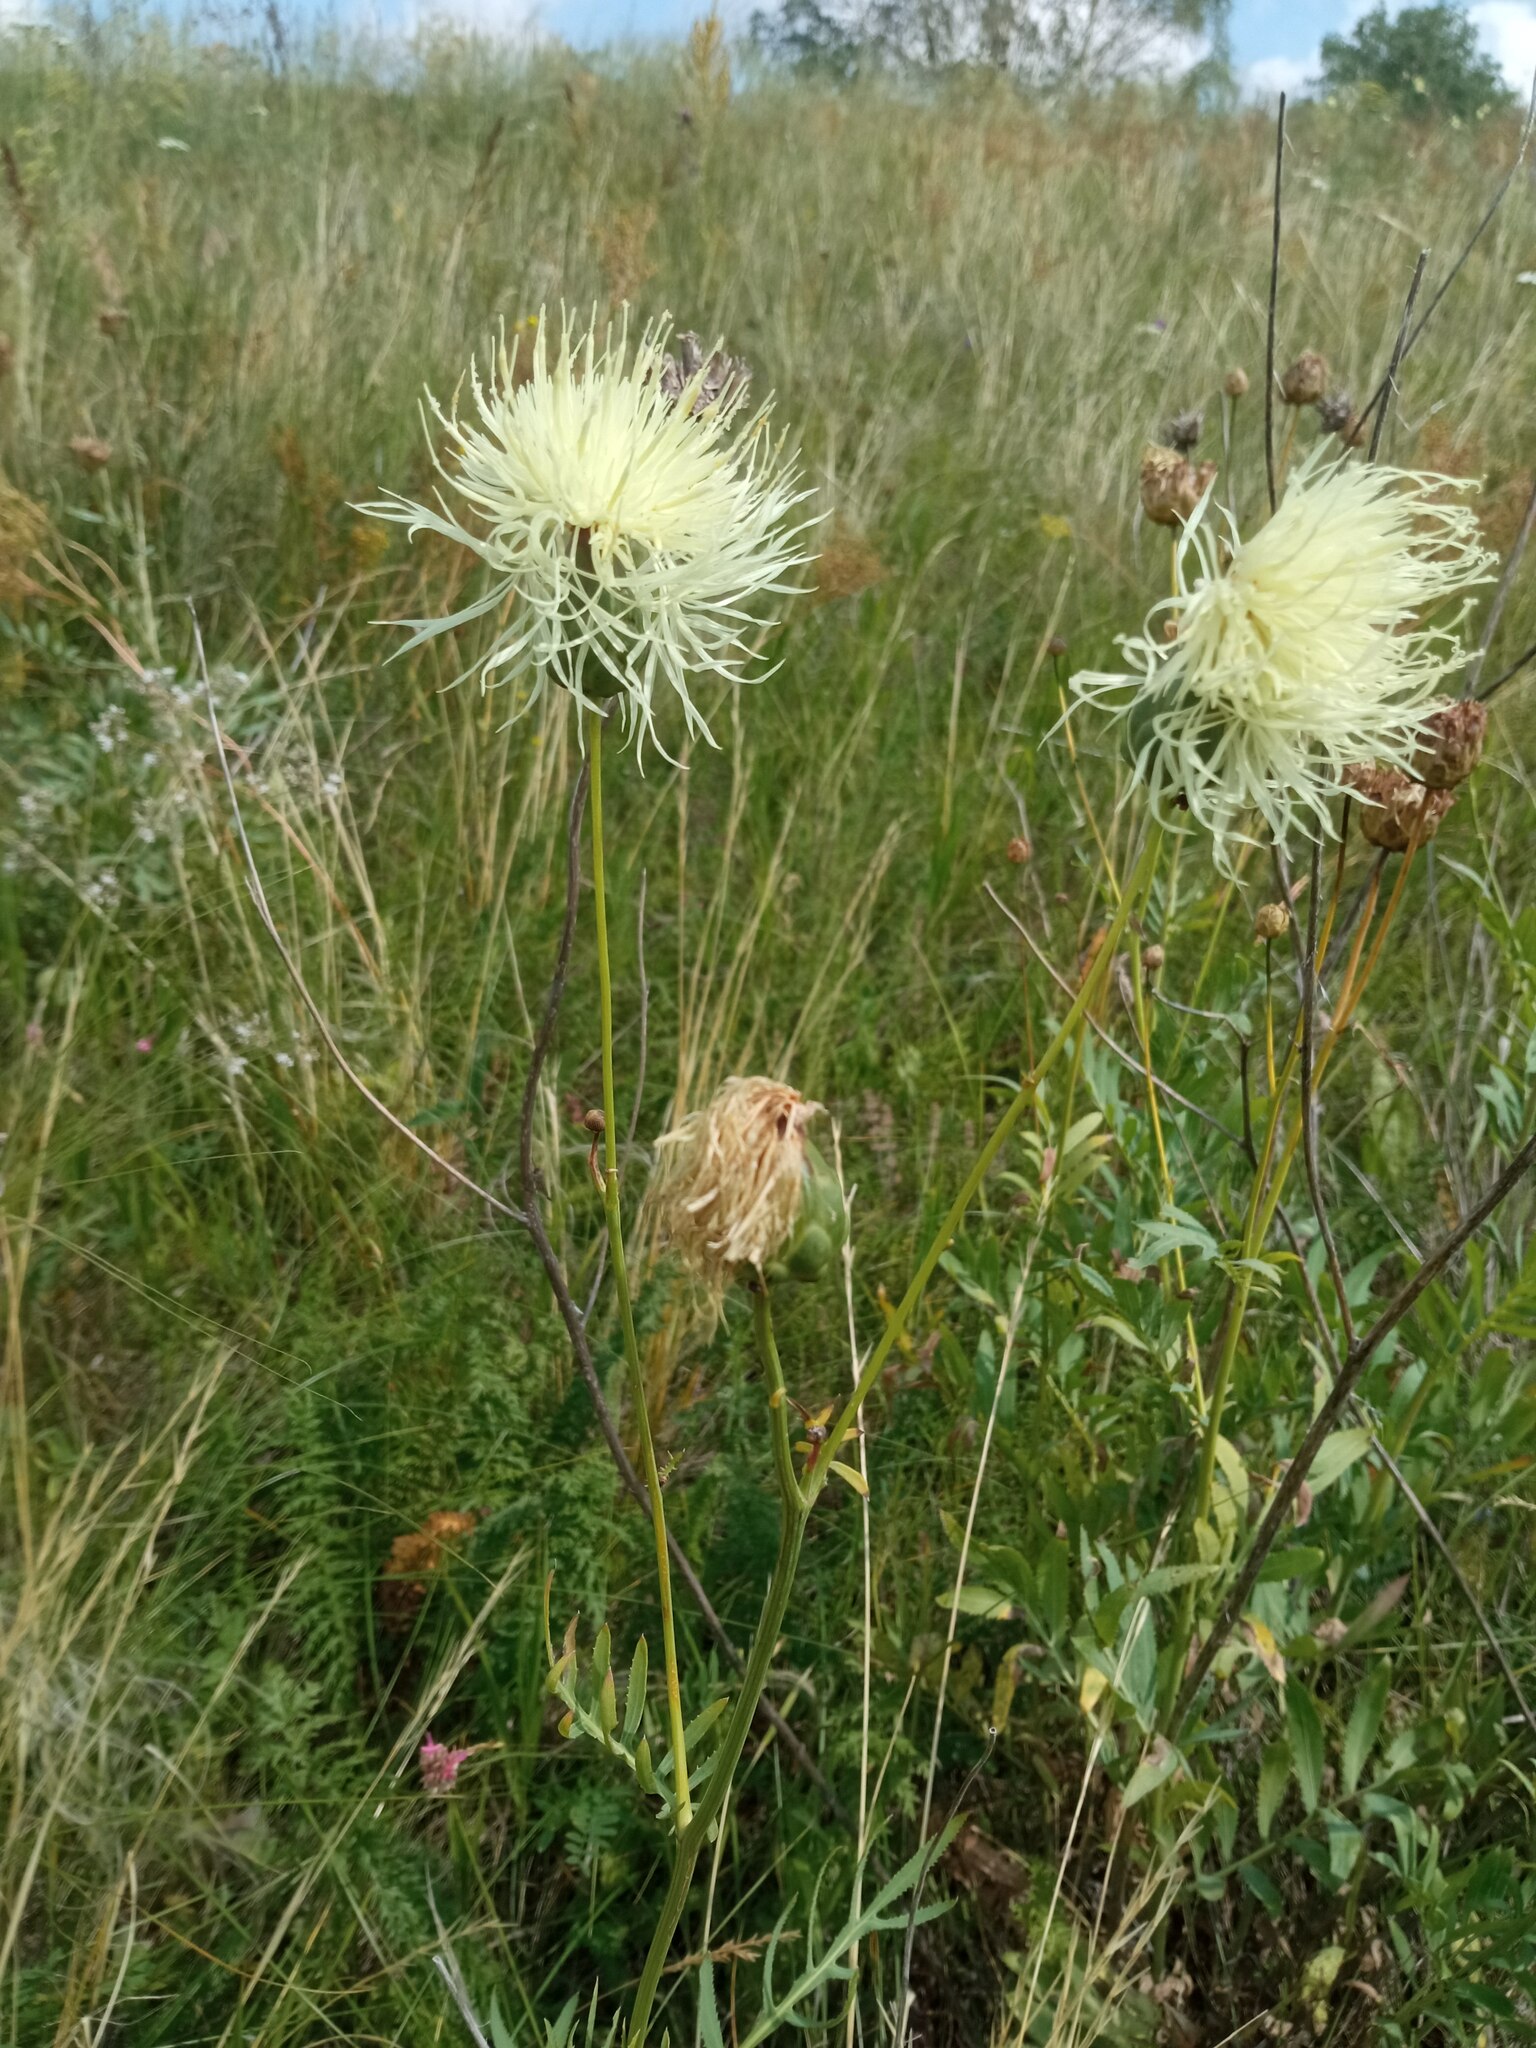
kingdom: Plantae
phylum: Tracheophyta
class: Magnoliopsida
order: Asterales
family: Asteraceae
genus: Rhaponticoides
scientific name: Rhaponticoides ruthenica
